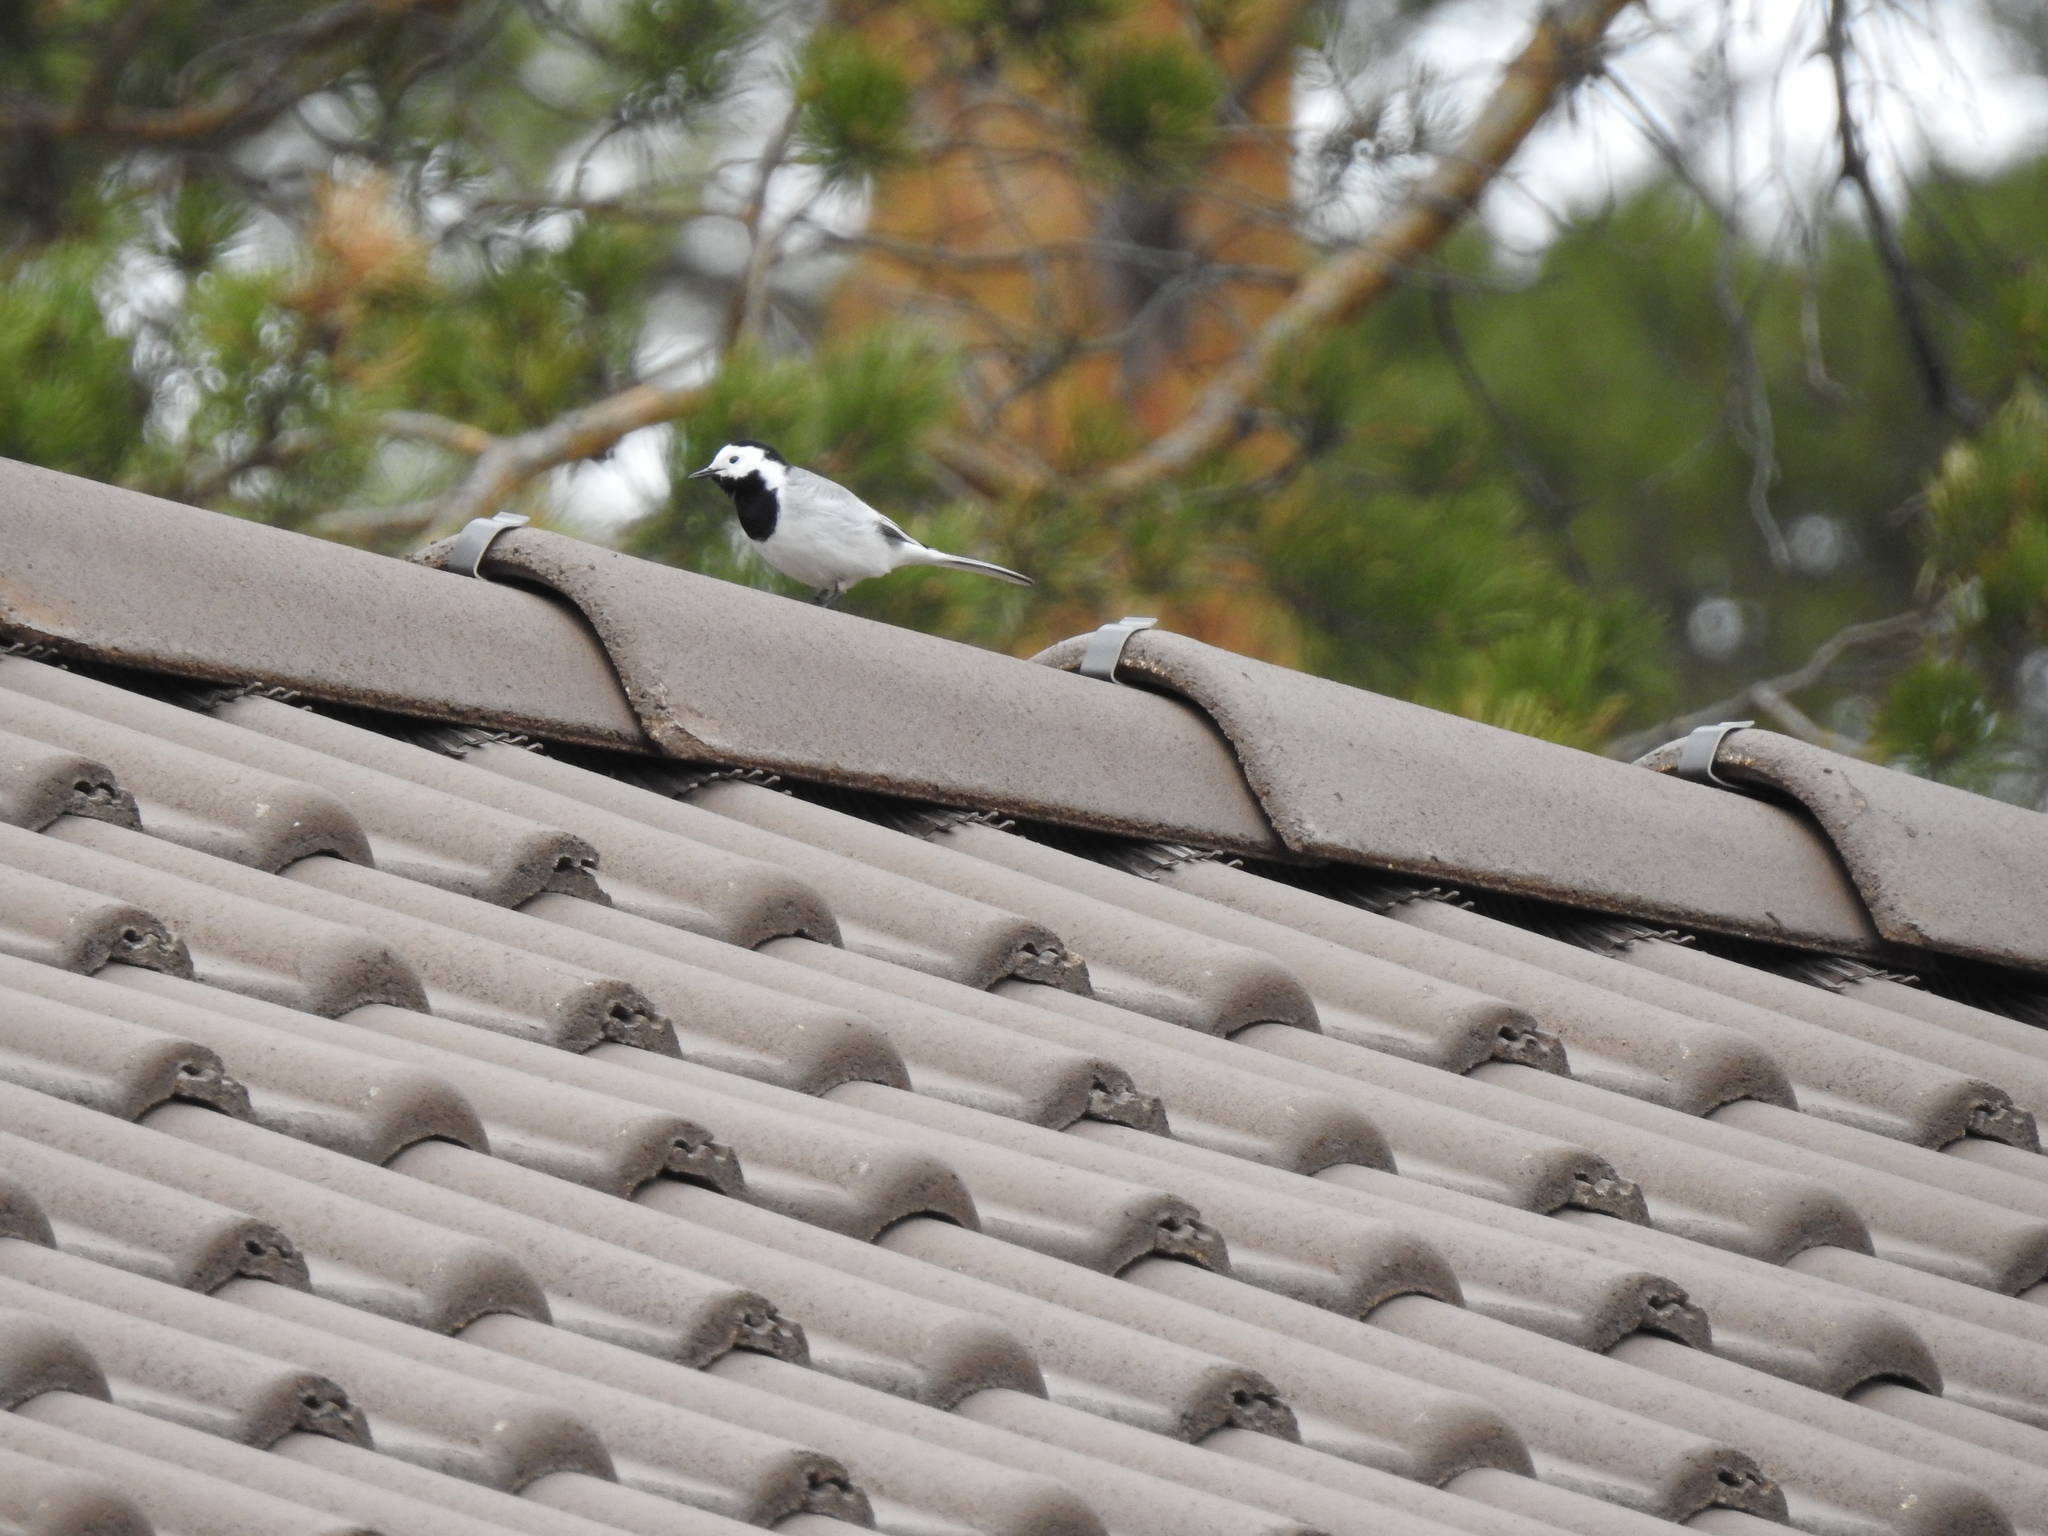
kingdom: Animalia
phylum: Chordata
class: Aves
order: Passeriformes
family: Motacillidae
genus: Motacilla
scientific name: Motacilla alba
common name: White wagtail
